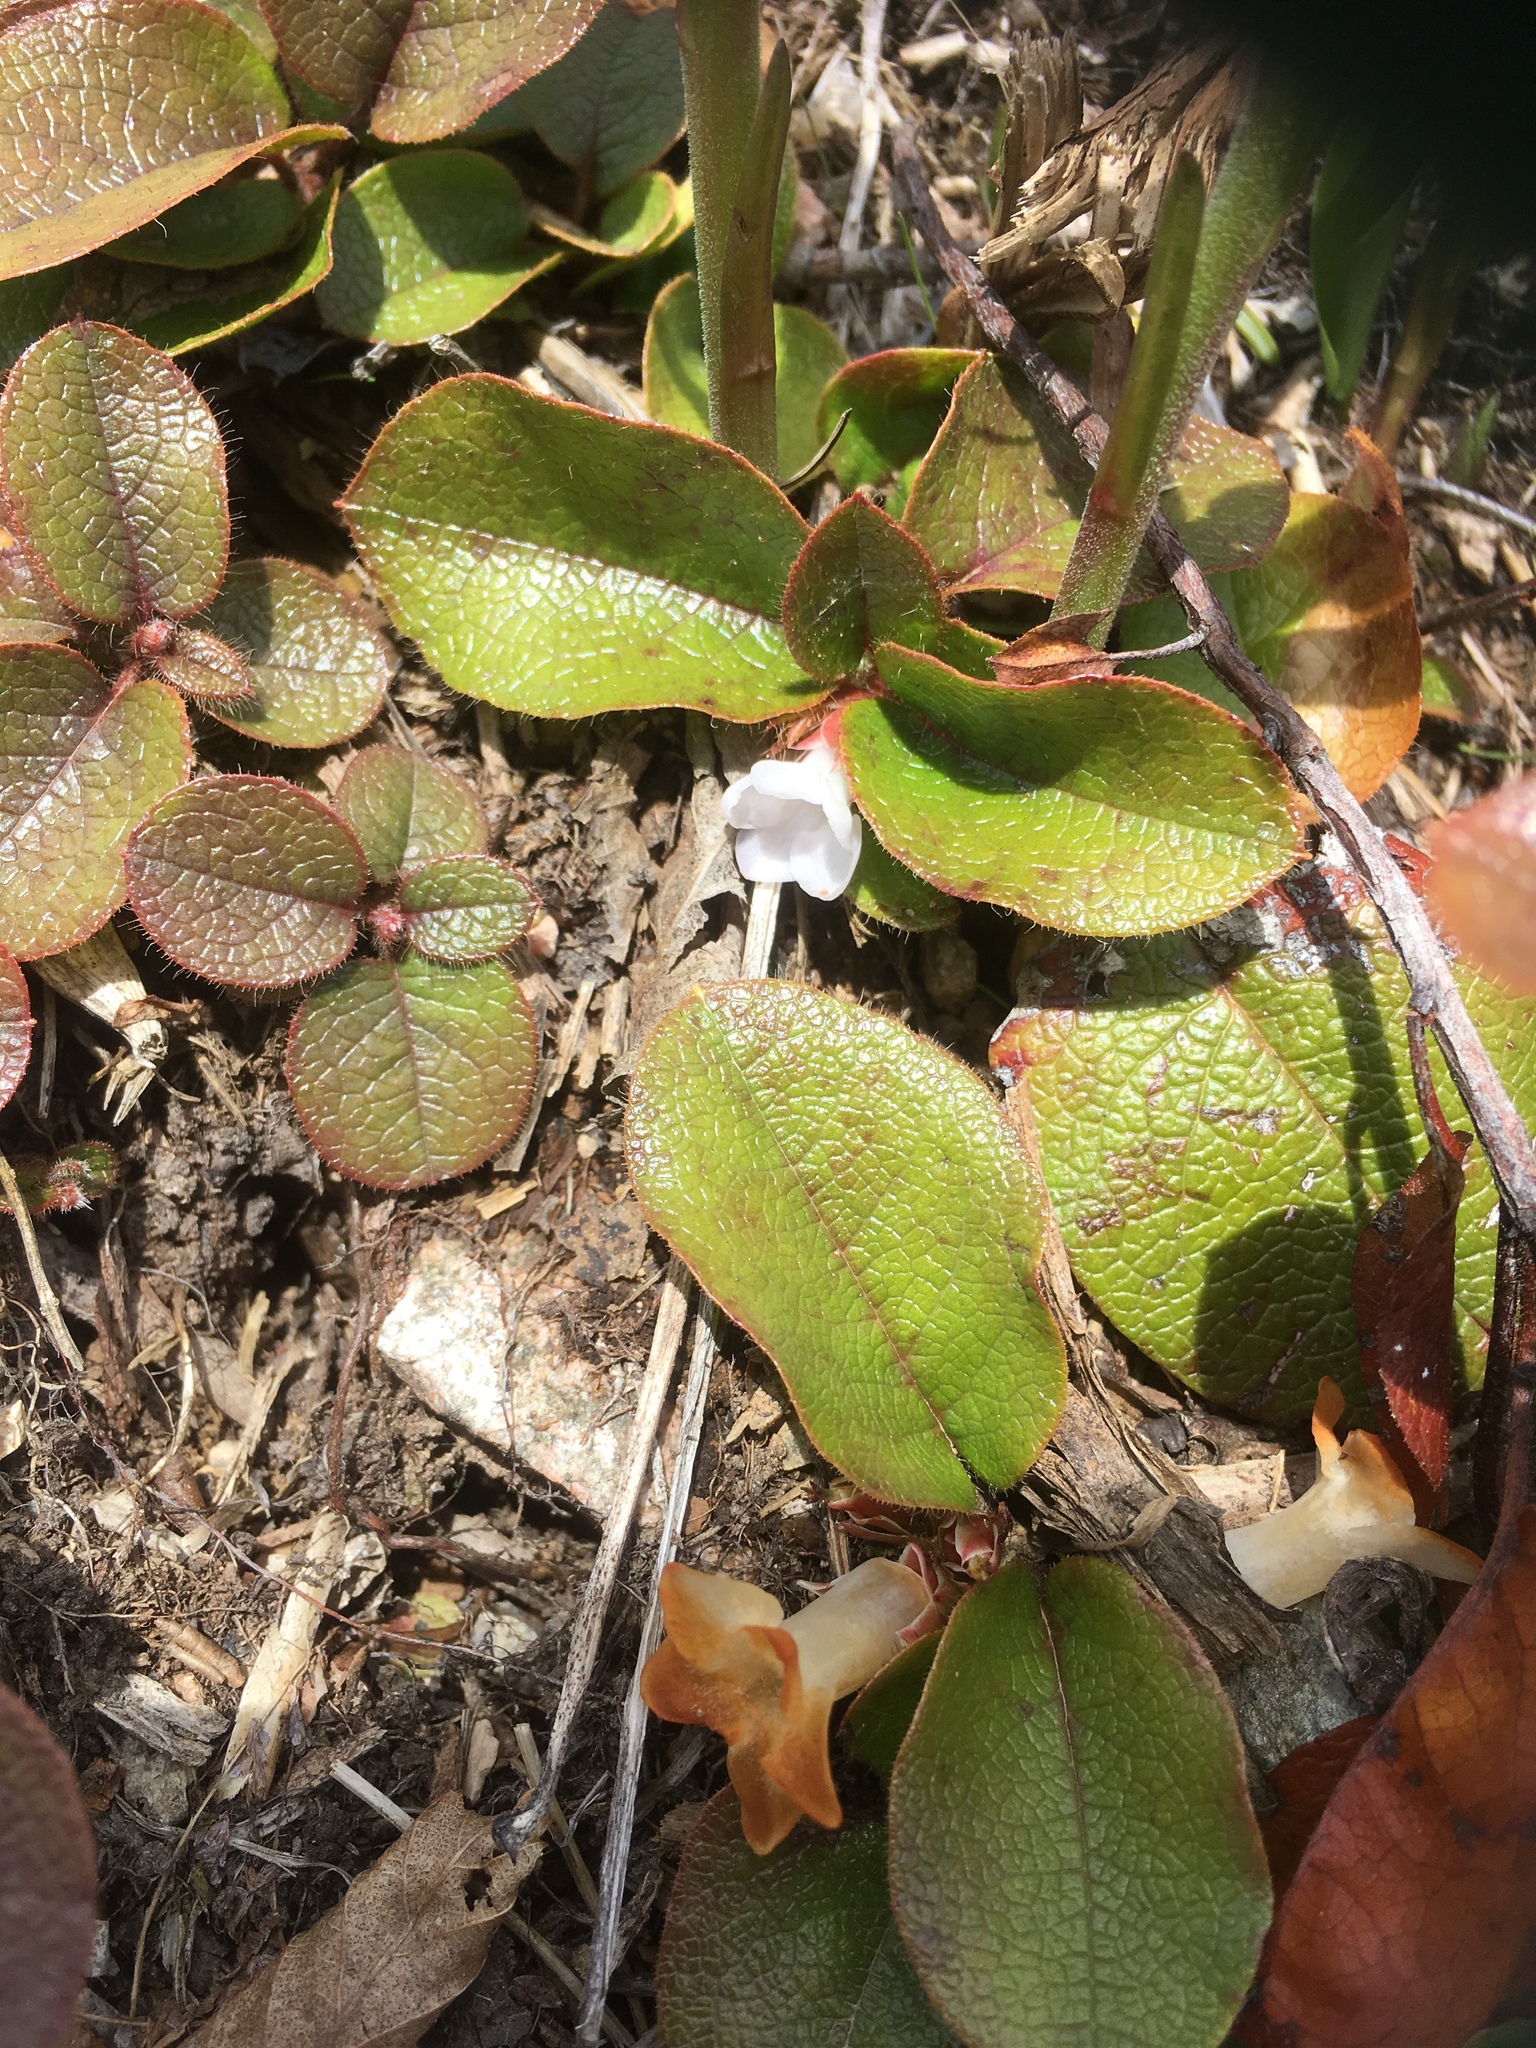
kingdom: Plantae
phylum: Tracheophyta
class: Magnoliopsida
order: Ericales
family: Ericaceae
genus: Epigaea
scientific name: Epigaea repens
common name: Gravelroot
